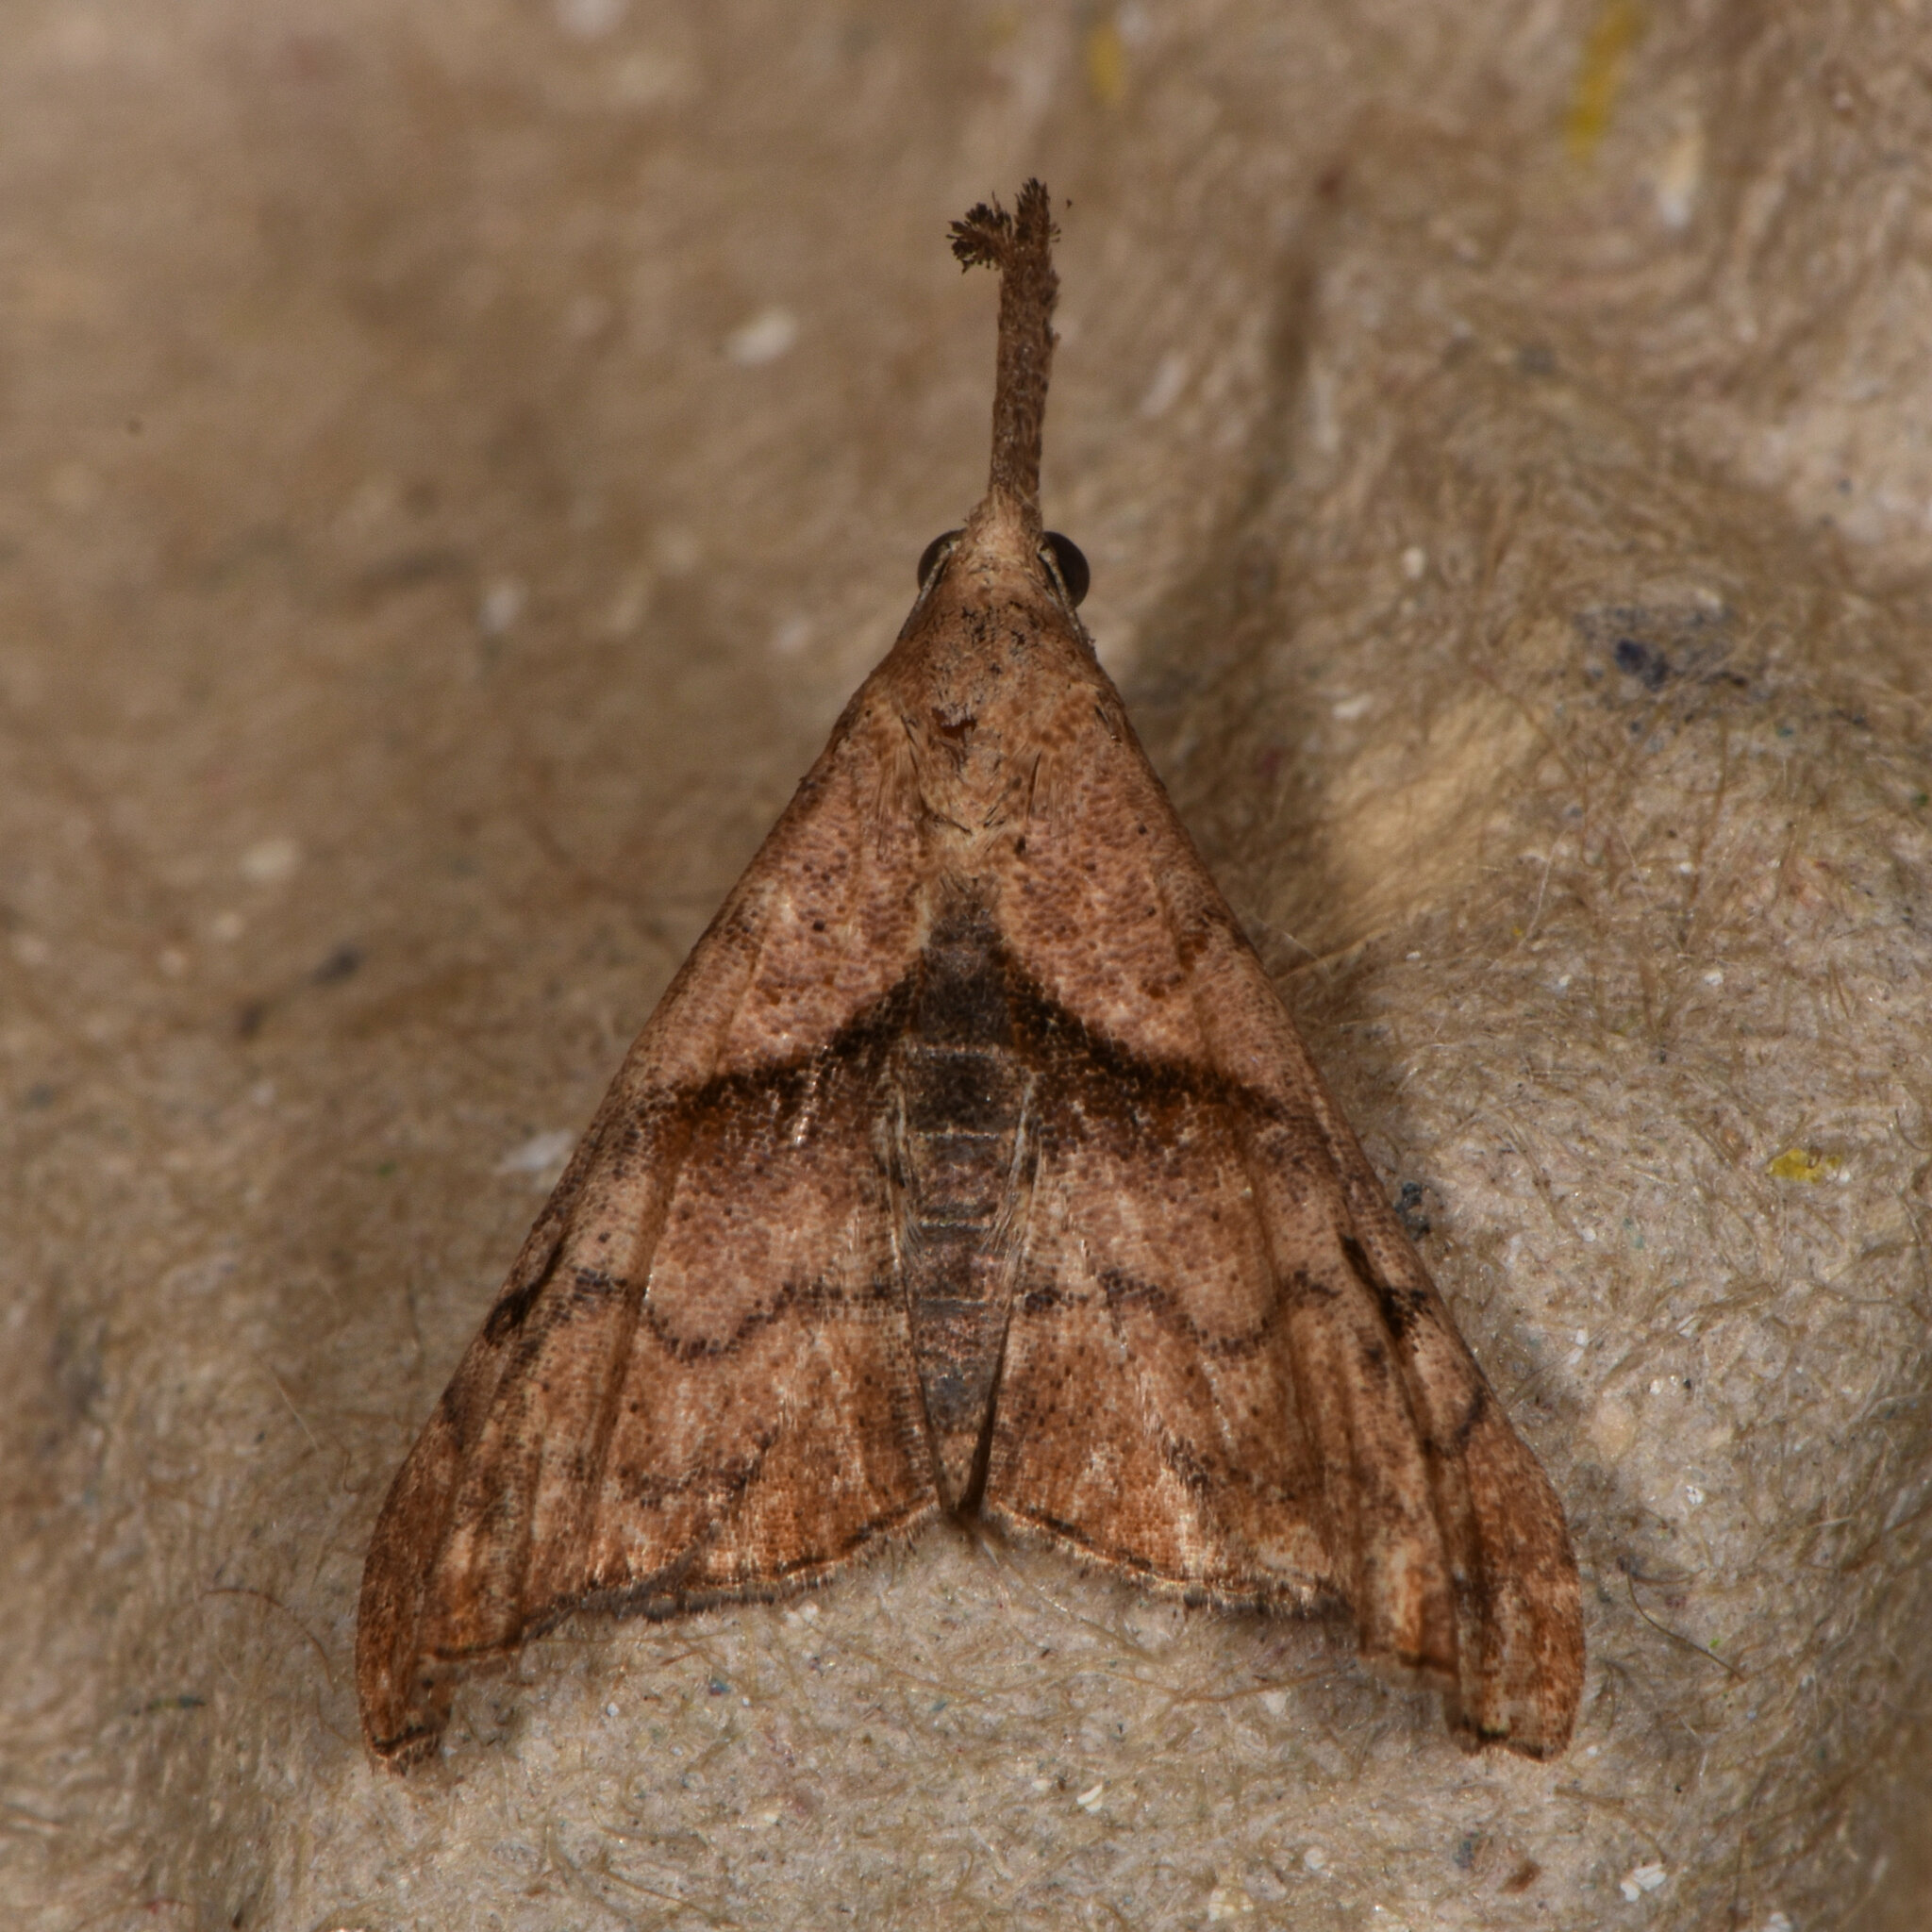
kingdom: Animalia
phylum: Arthropoda
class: Insecta
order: Lepidoptera
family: Erebidae
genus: Palthis
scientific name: Palthis angulalis
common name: Dark-spotted palthis moth
